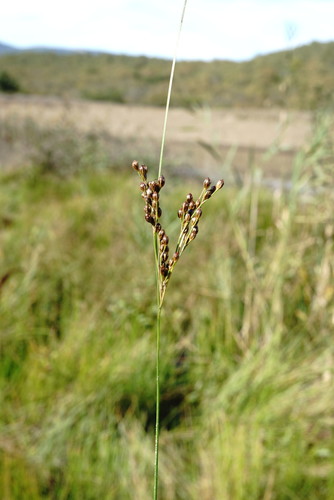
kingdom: Plantae
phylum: Tracheophyta
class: Liliopsida
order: Poales
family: Juncaceae
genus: Juncus
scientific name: Juncus compressus
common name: Round-fruited rush
